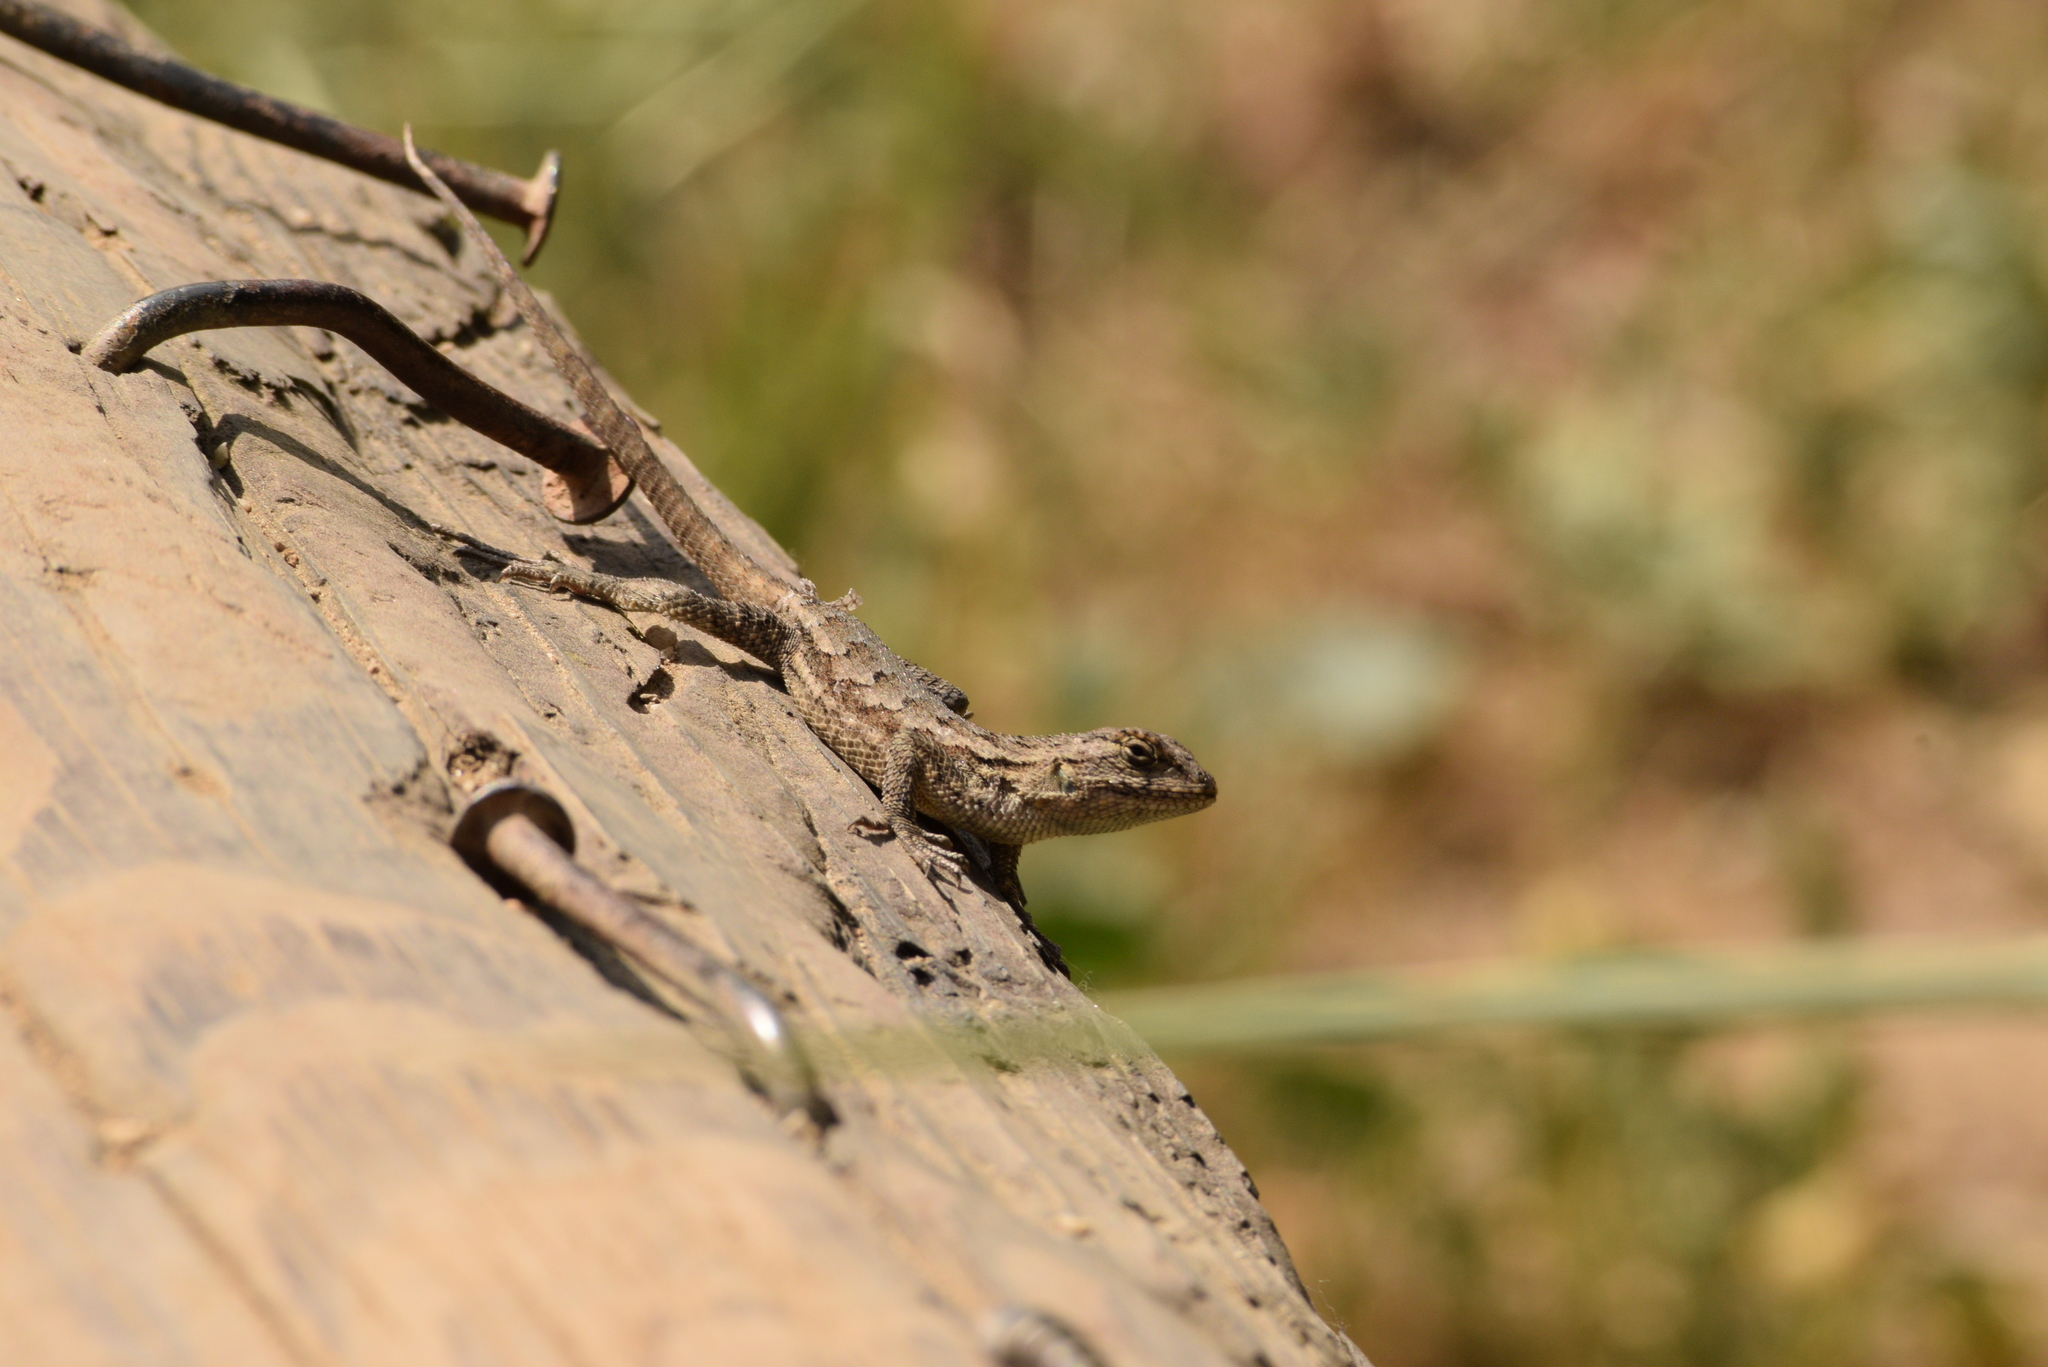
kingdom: Animalia
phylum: Chordata
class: Squamata
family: Phrynosomatidae
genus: Sceloporus
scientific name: Sceloporus occidentalis
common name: Western fence lizard
